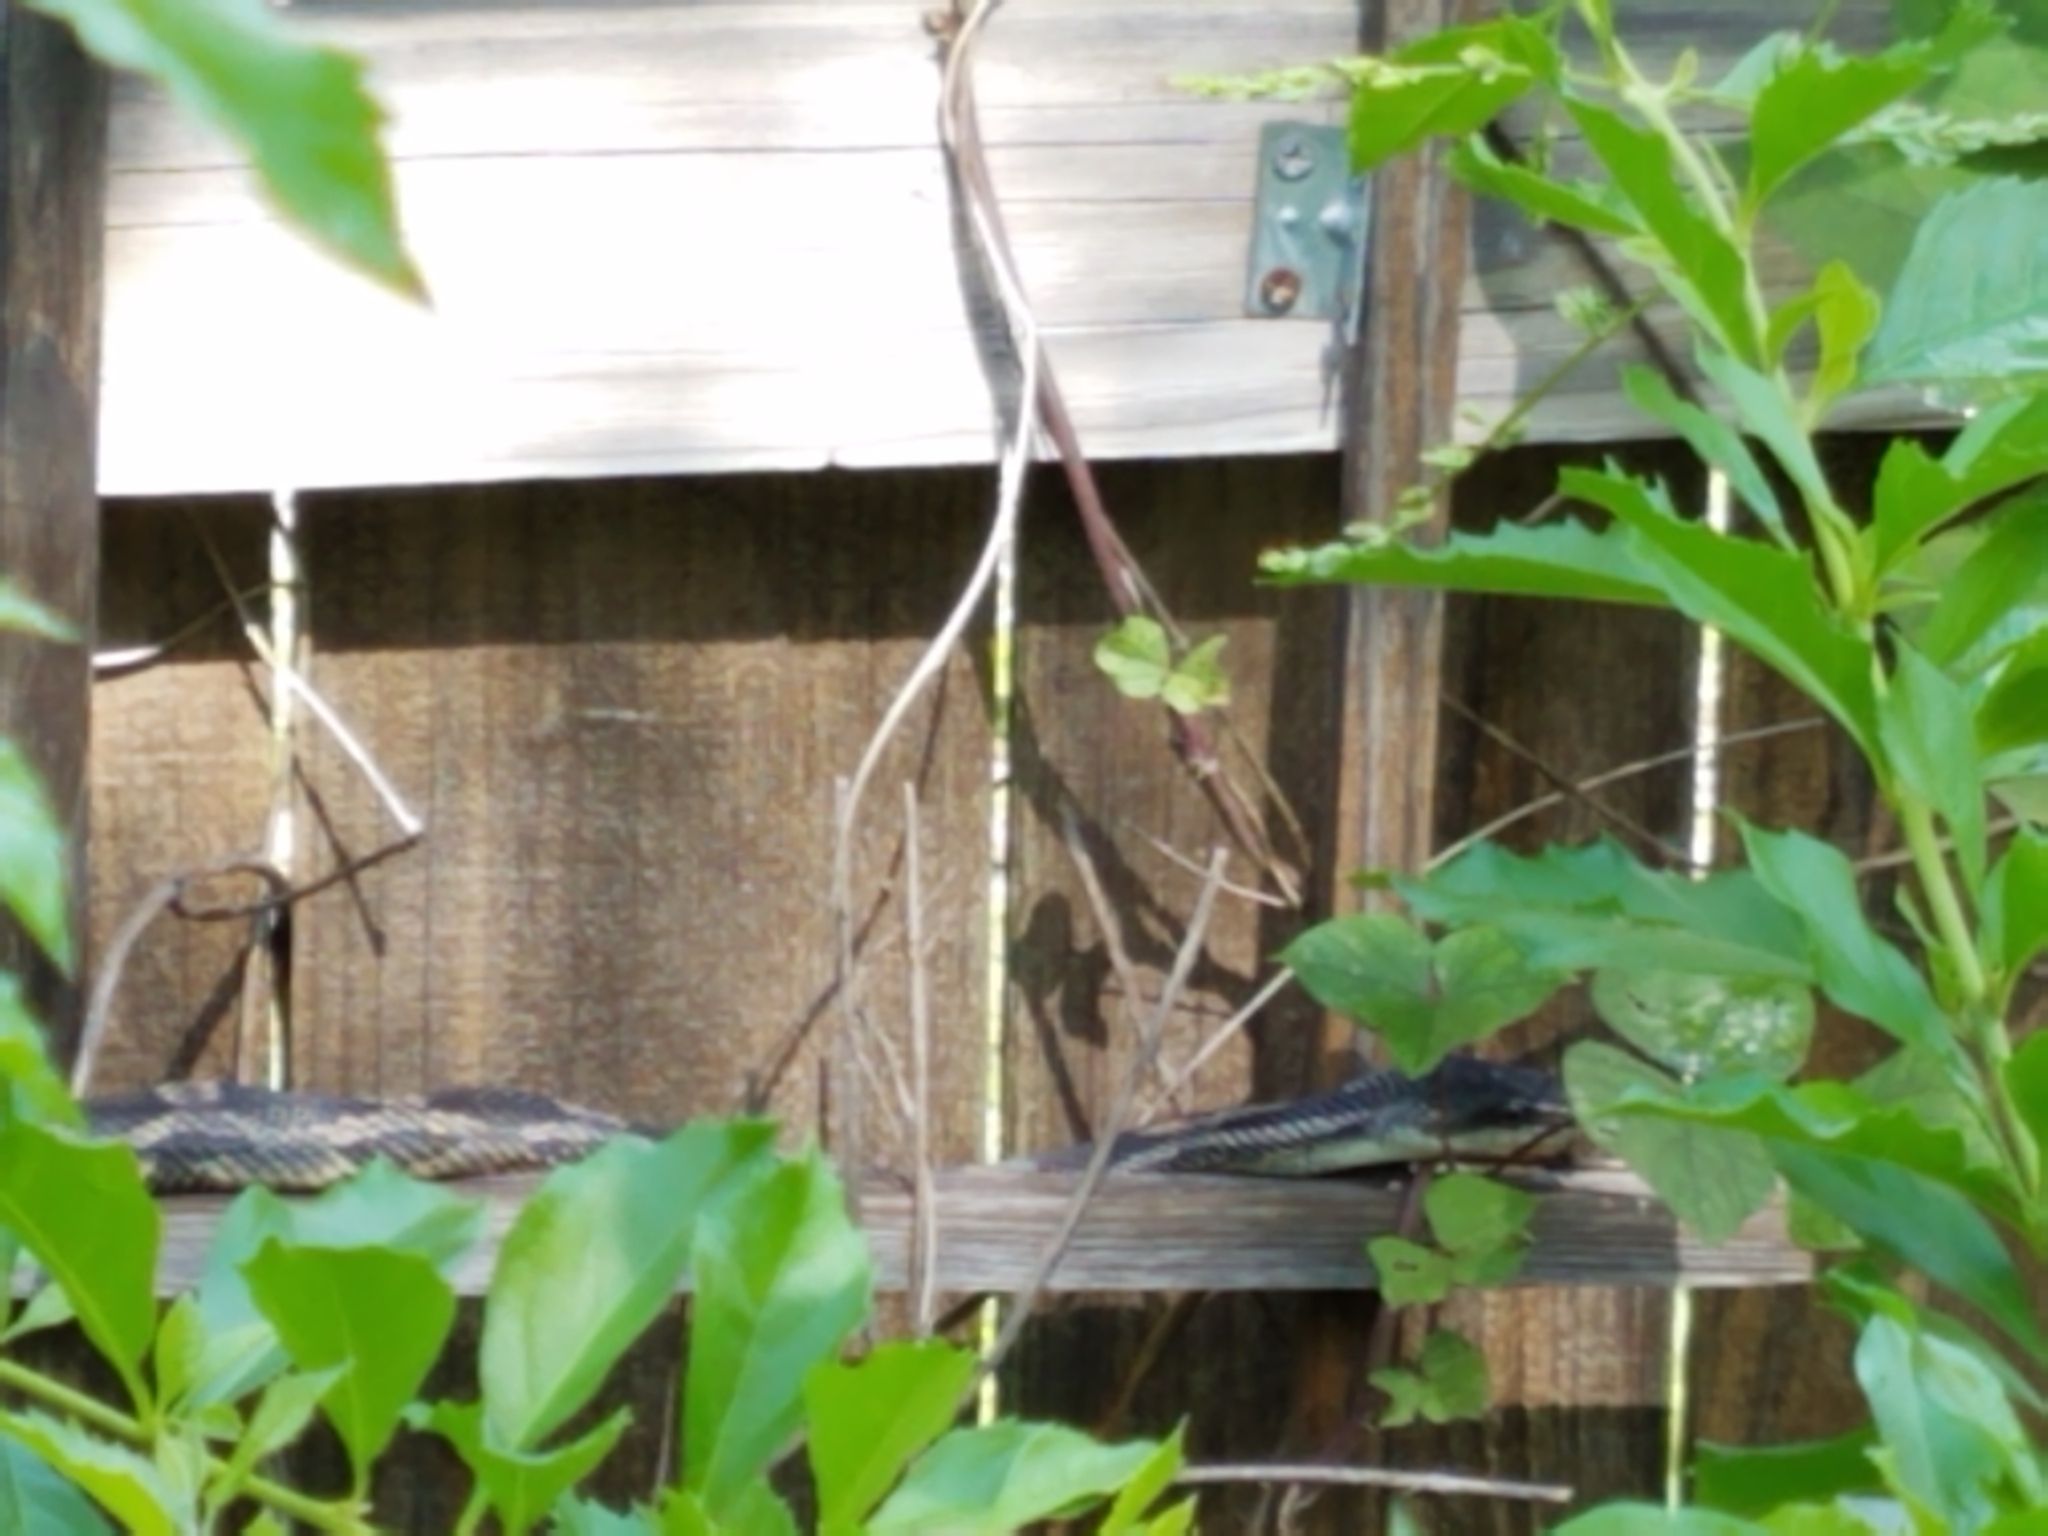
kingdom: Animalia
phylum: Chordata
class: Squamata
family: Colubridae
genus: Pantherophis
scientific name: Pantherophis obsoletus
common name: Black rat snake
